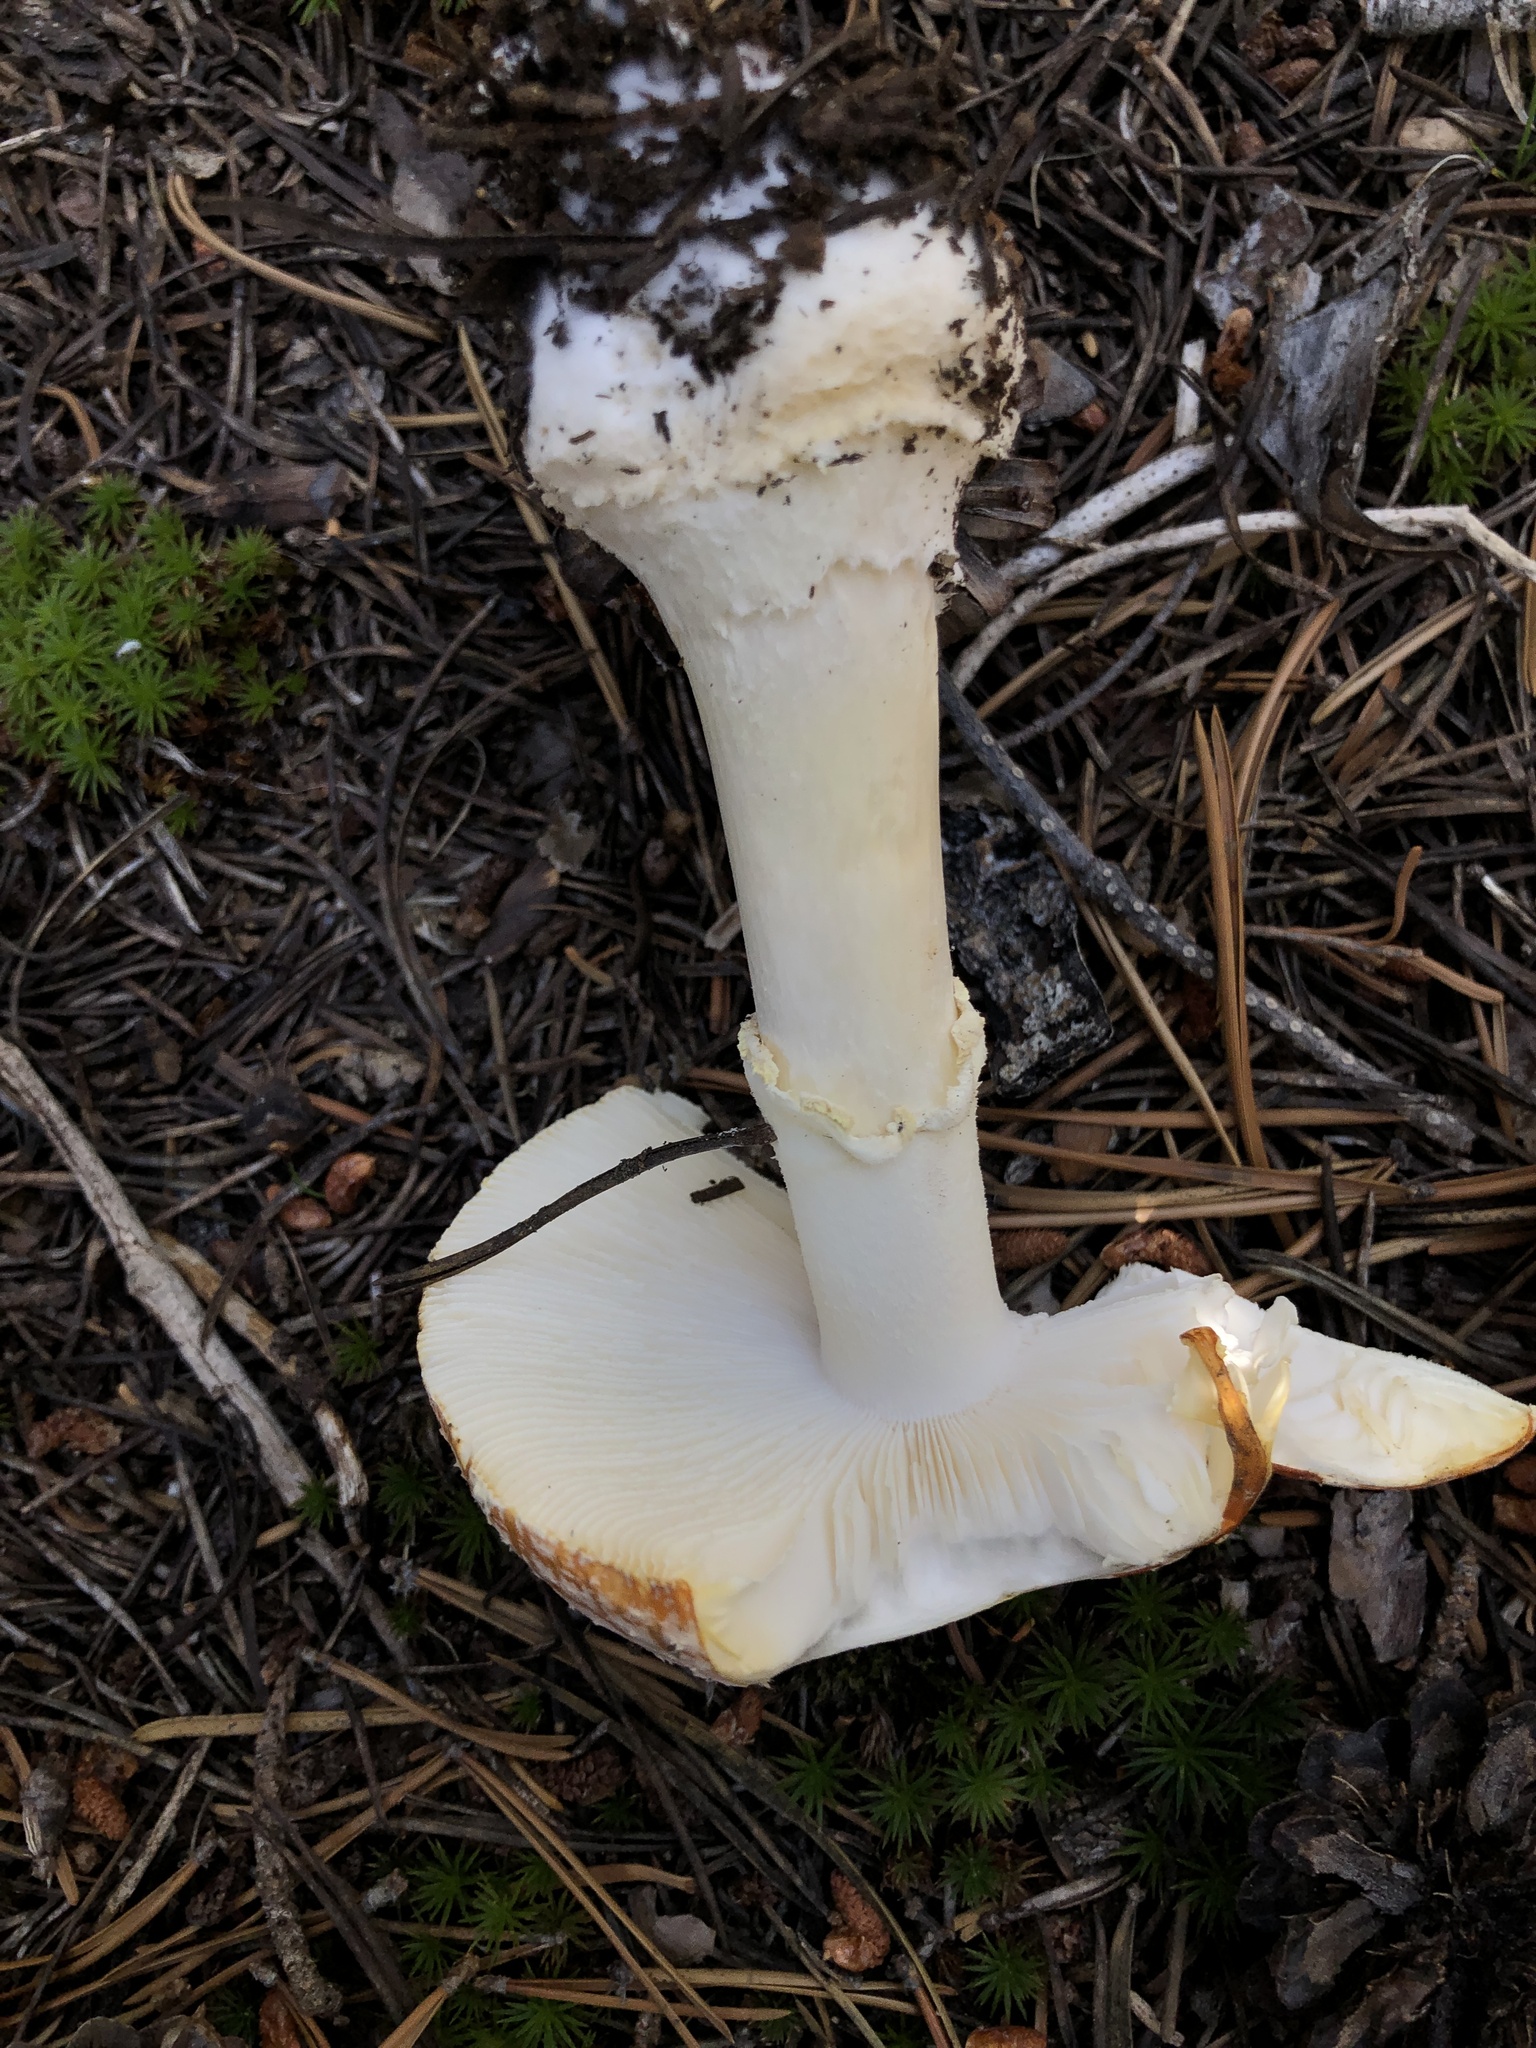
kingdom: Fungi
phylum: Basidiomycota
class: Agaricomycetes
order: Agaricales
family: Amanitaceae
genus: Amanita
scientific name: Amanita muscaria
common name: Fly agaric
